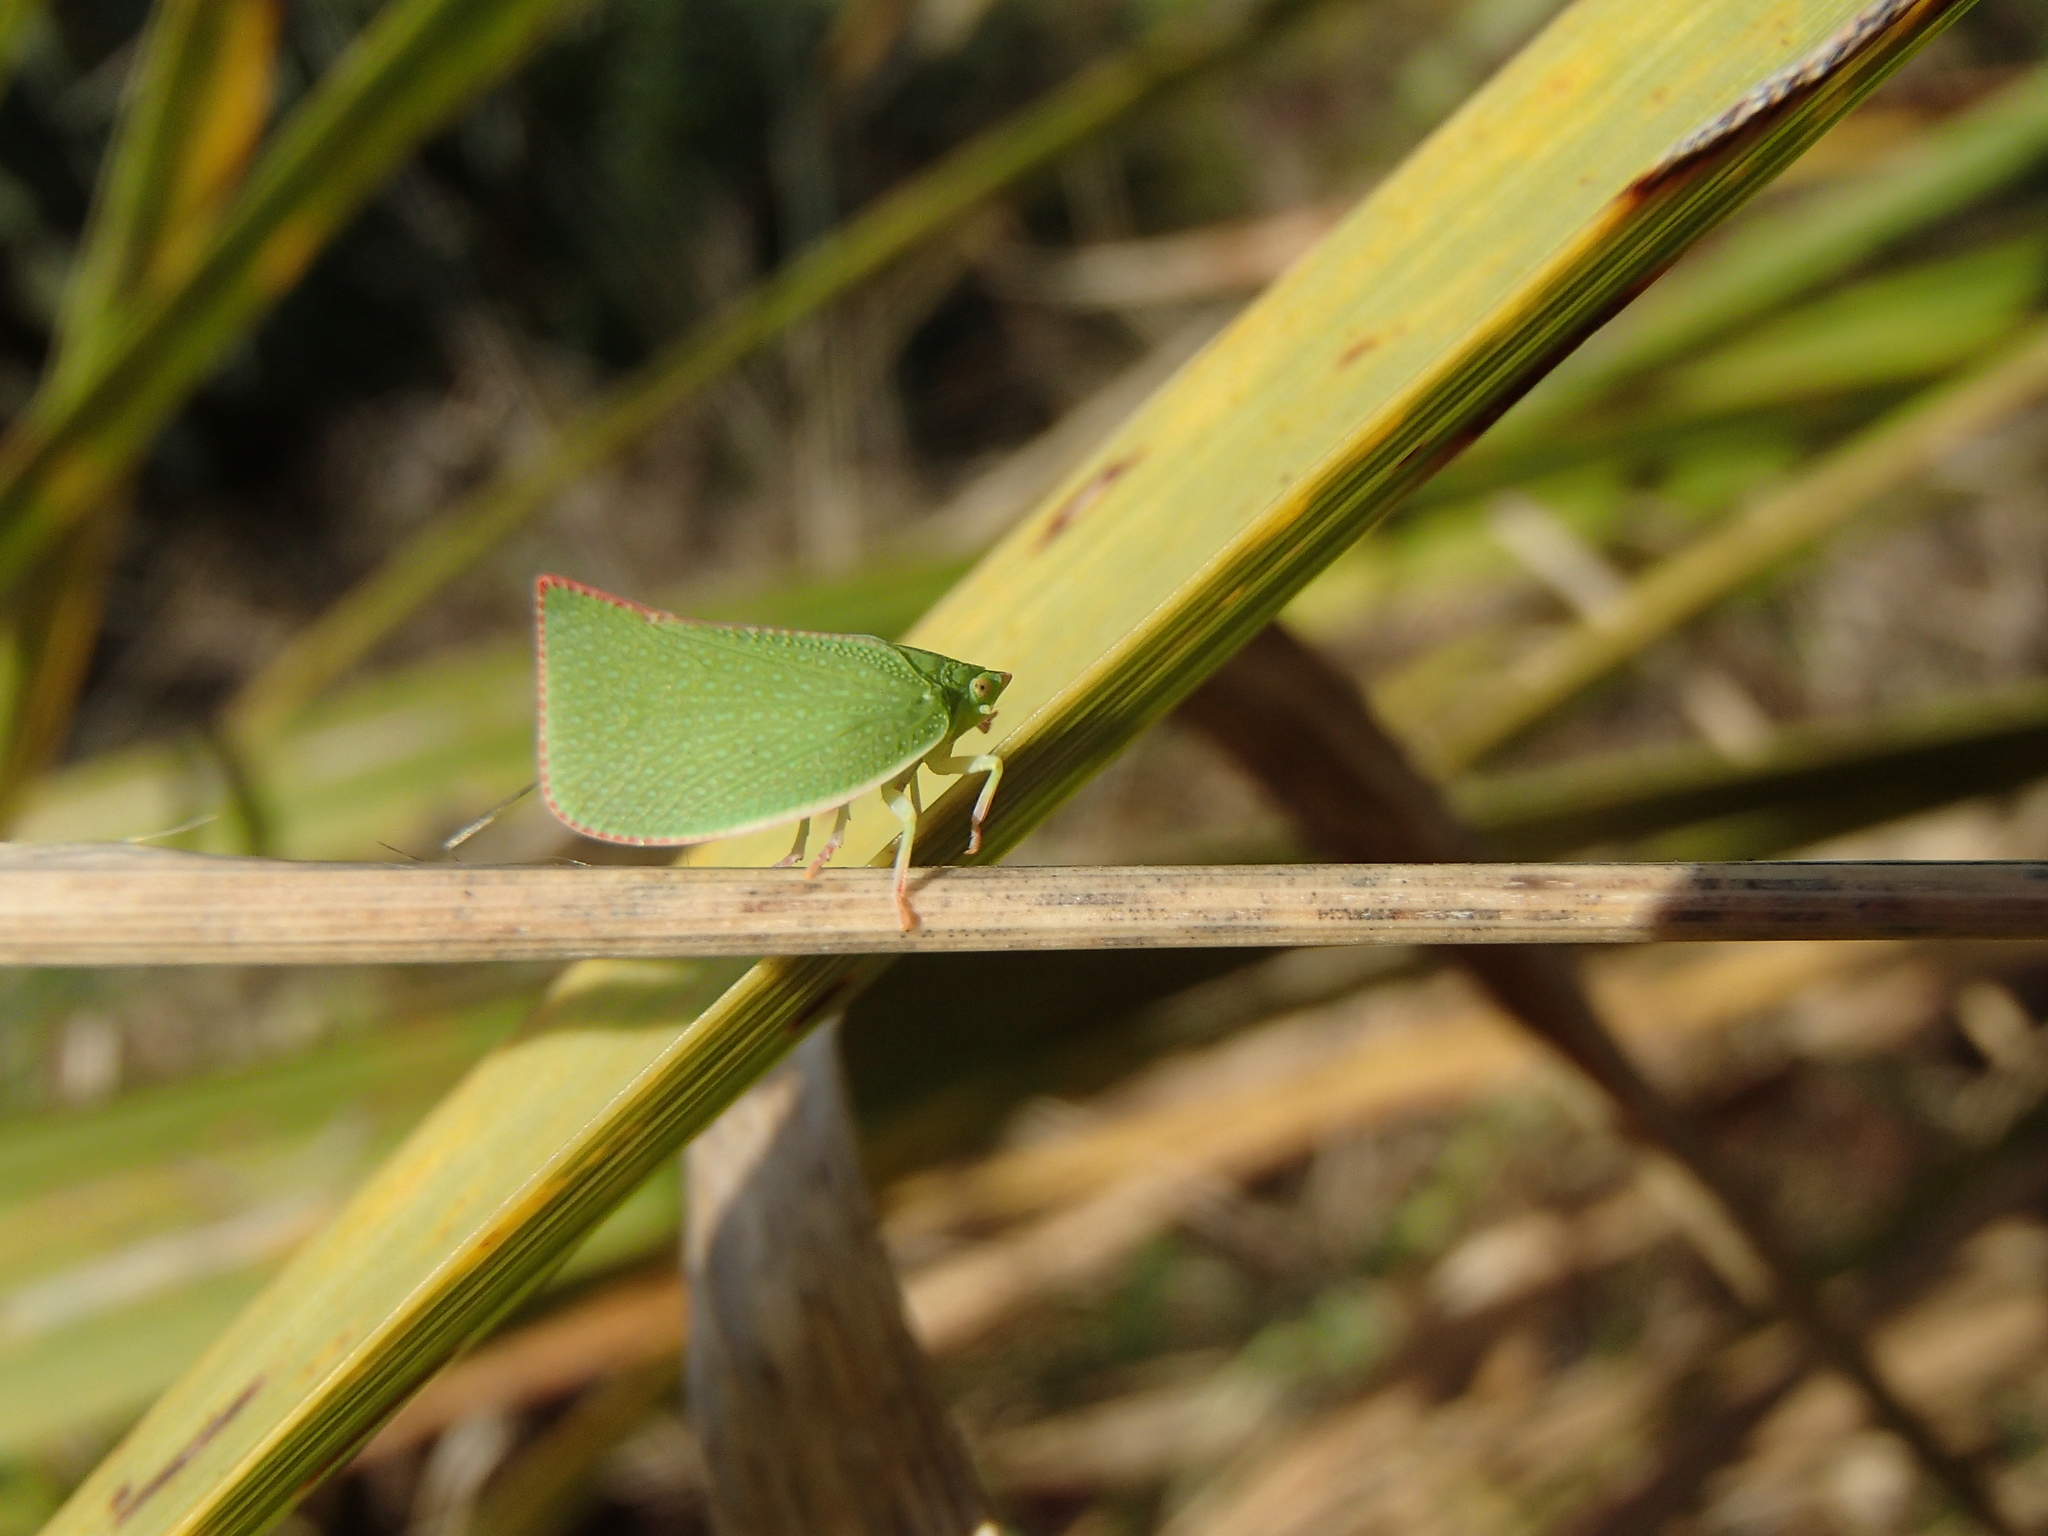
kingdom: Animalia
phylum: Arthropoda
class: Insecta
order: Hemiptera
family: Flatidae
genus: Siphanta
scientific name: Siphanta acuta
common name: Torpedo bug
